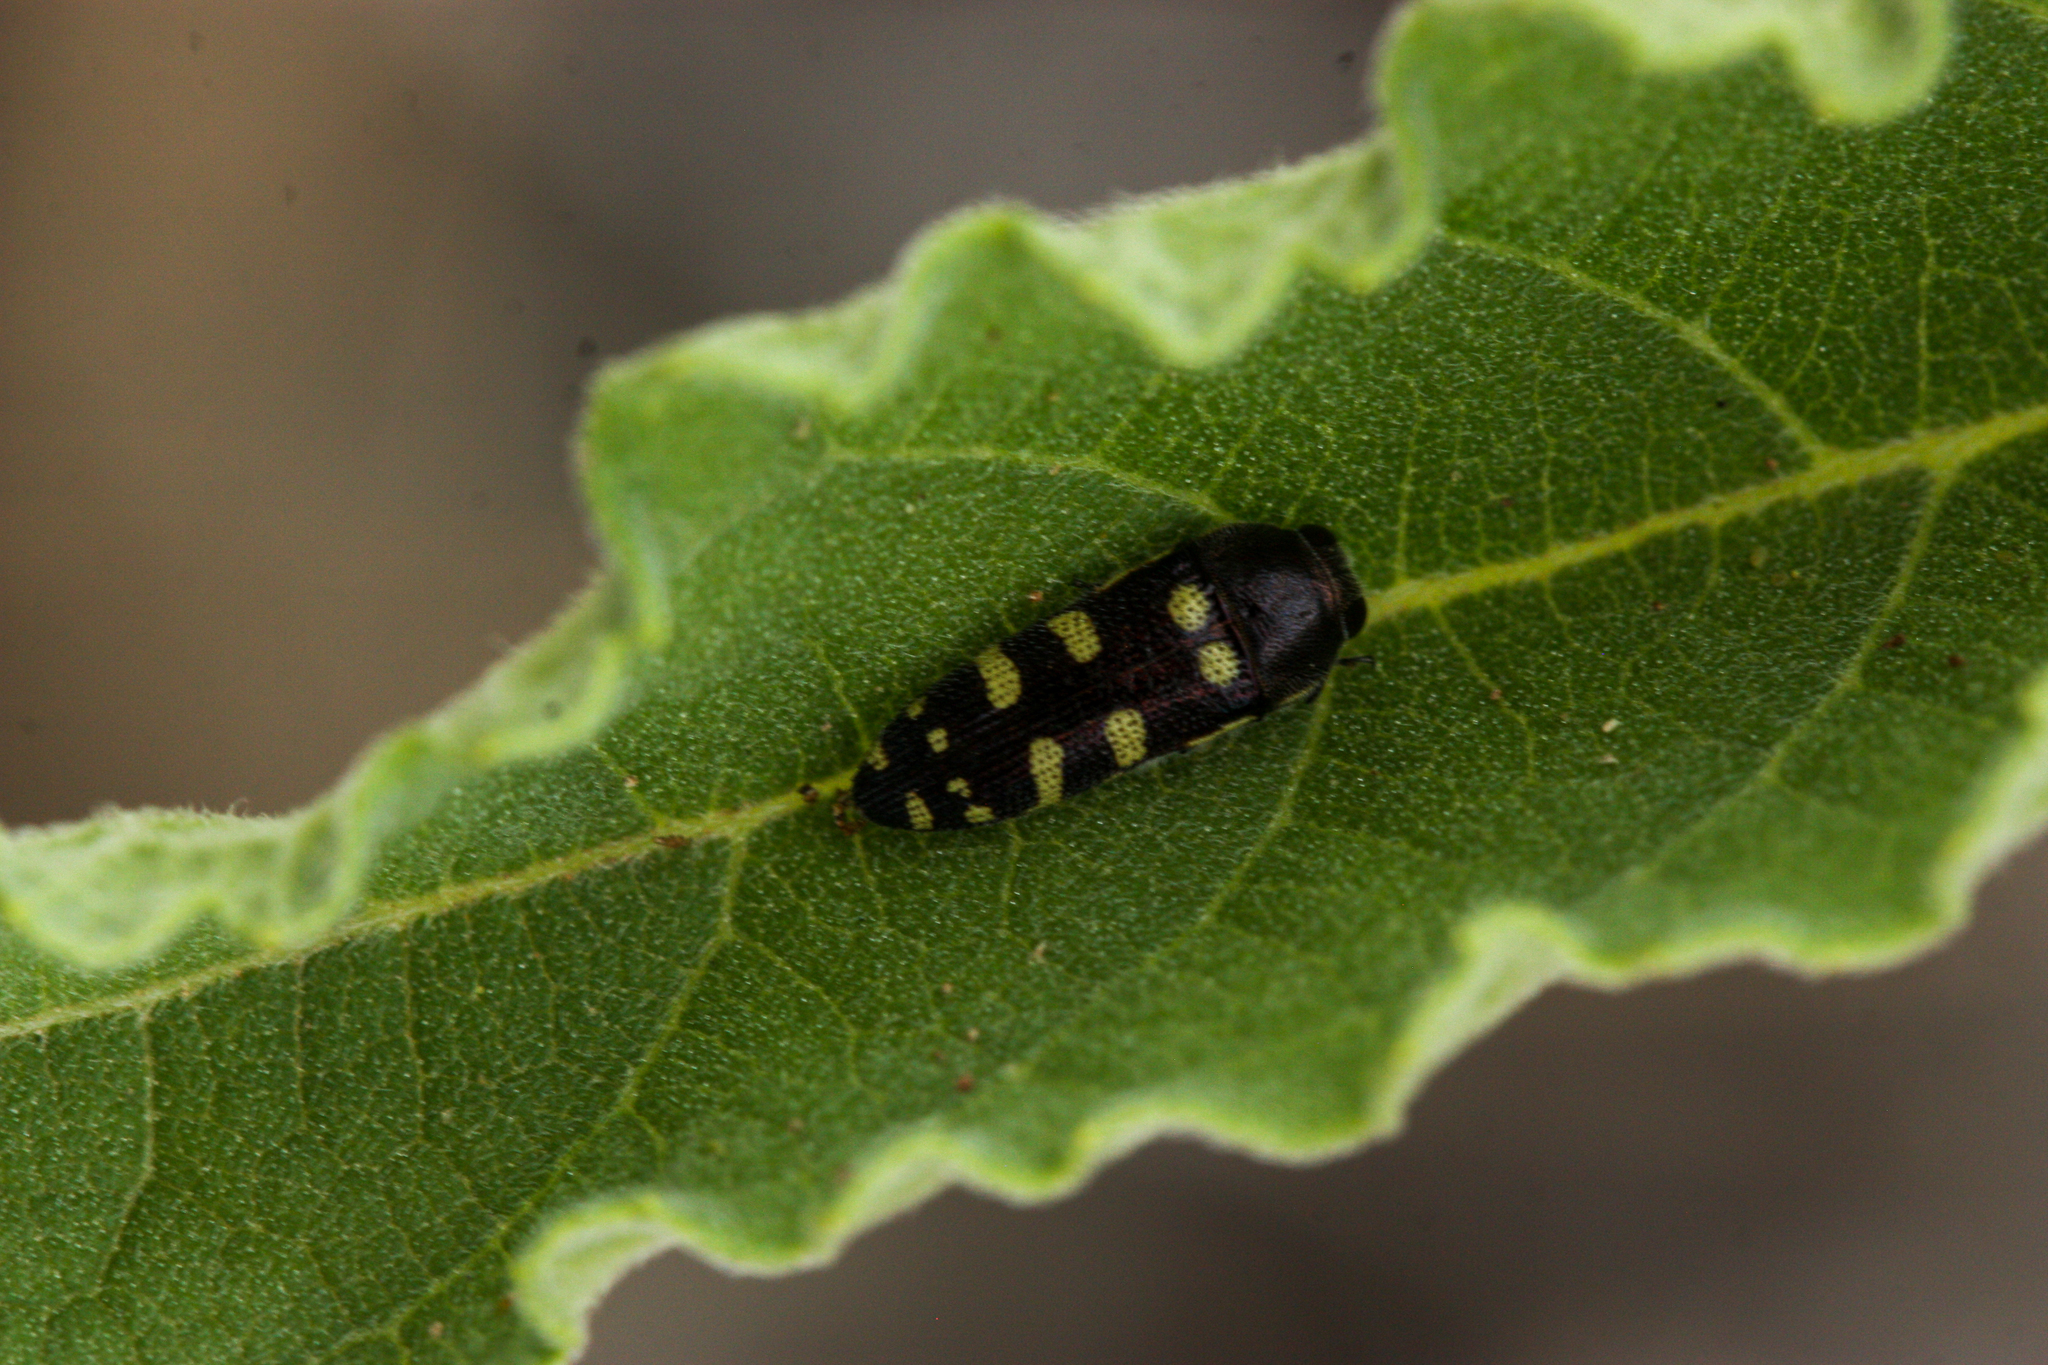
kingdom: Animalia
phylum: Arthropoda
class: Insecta
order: Coleoptera
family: Buprestidae
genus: Acmaeodera
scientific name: Acmaeodera alicia
